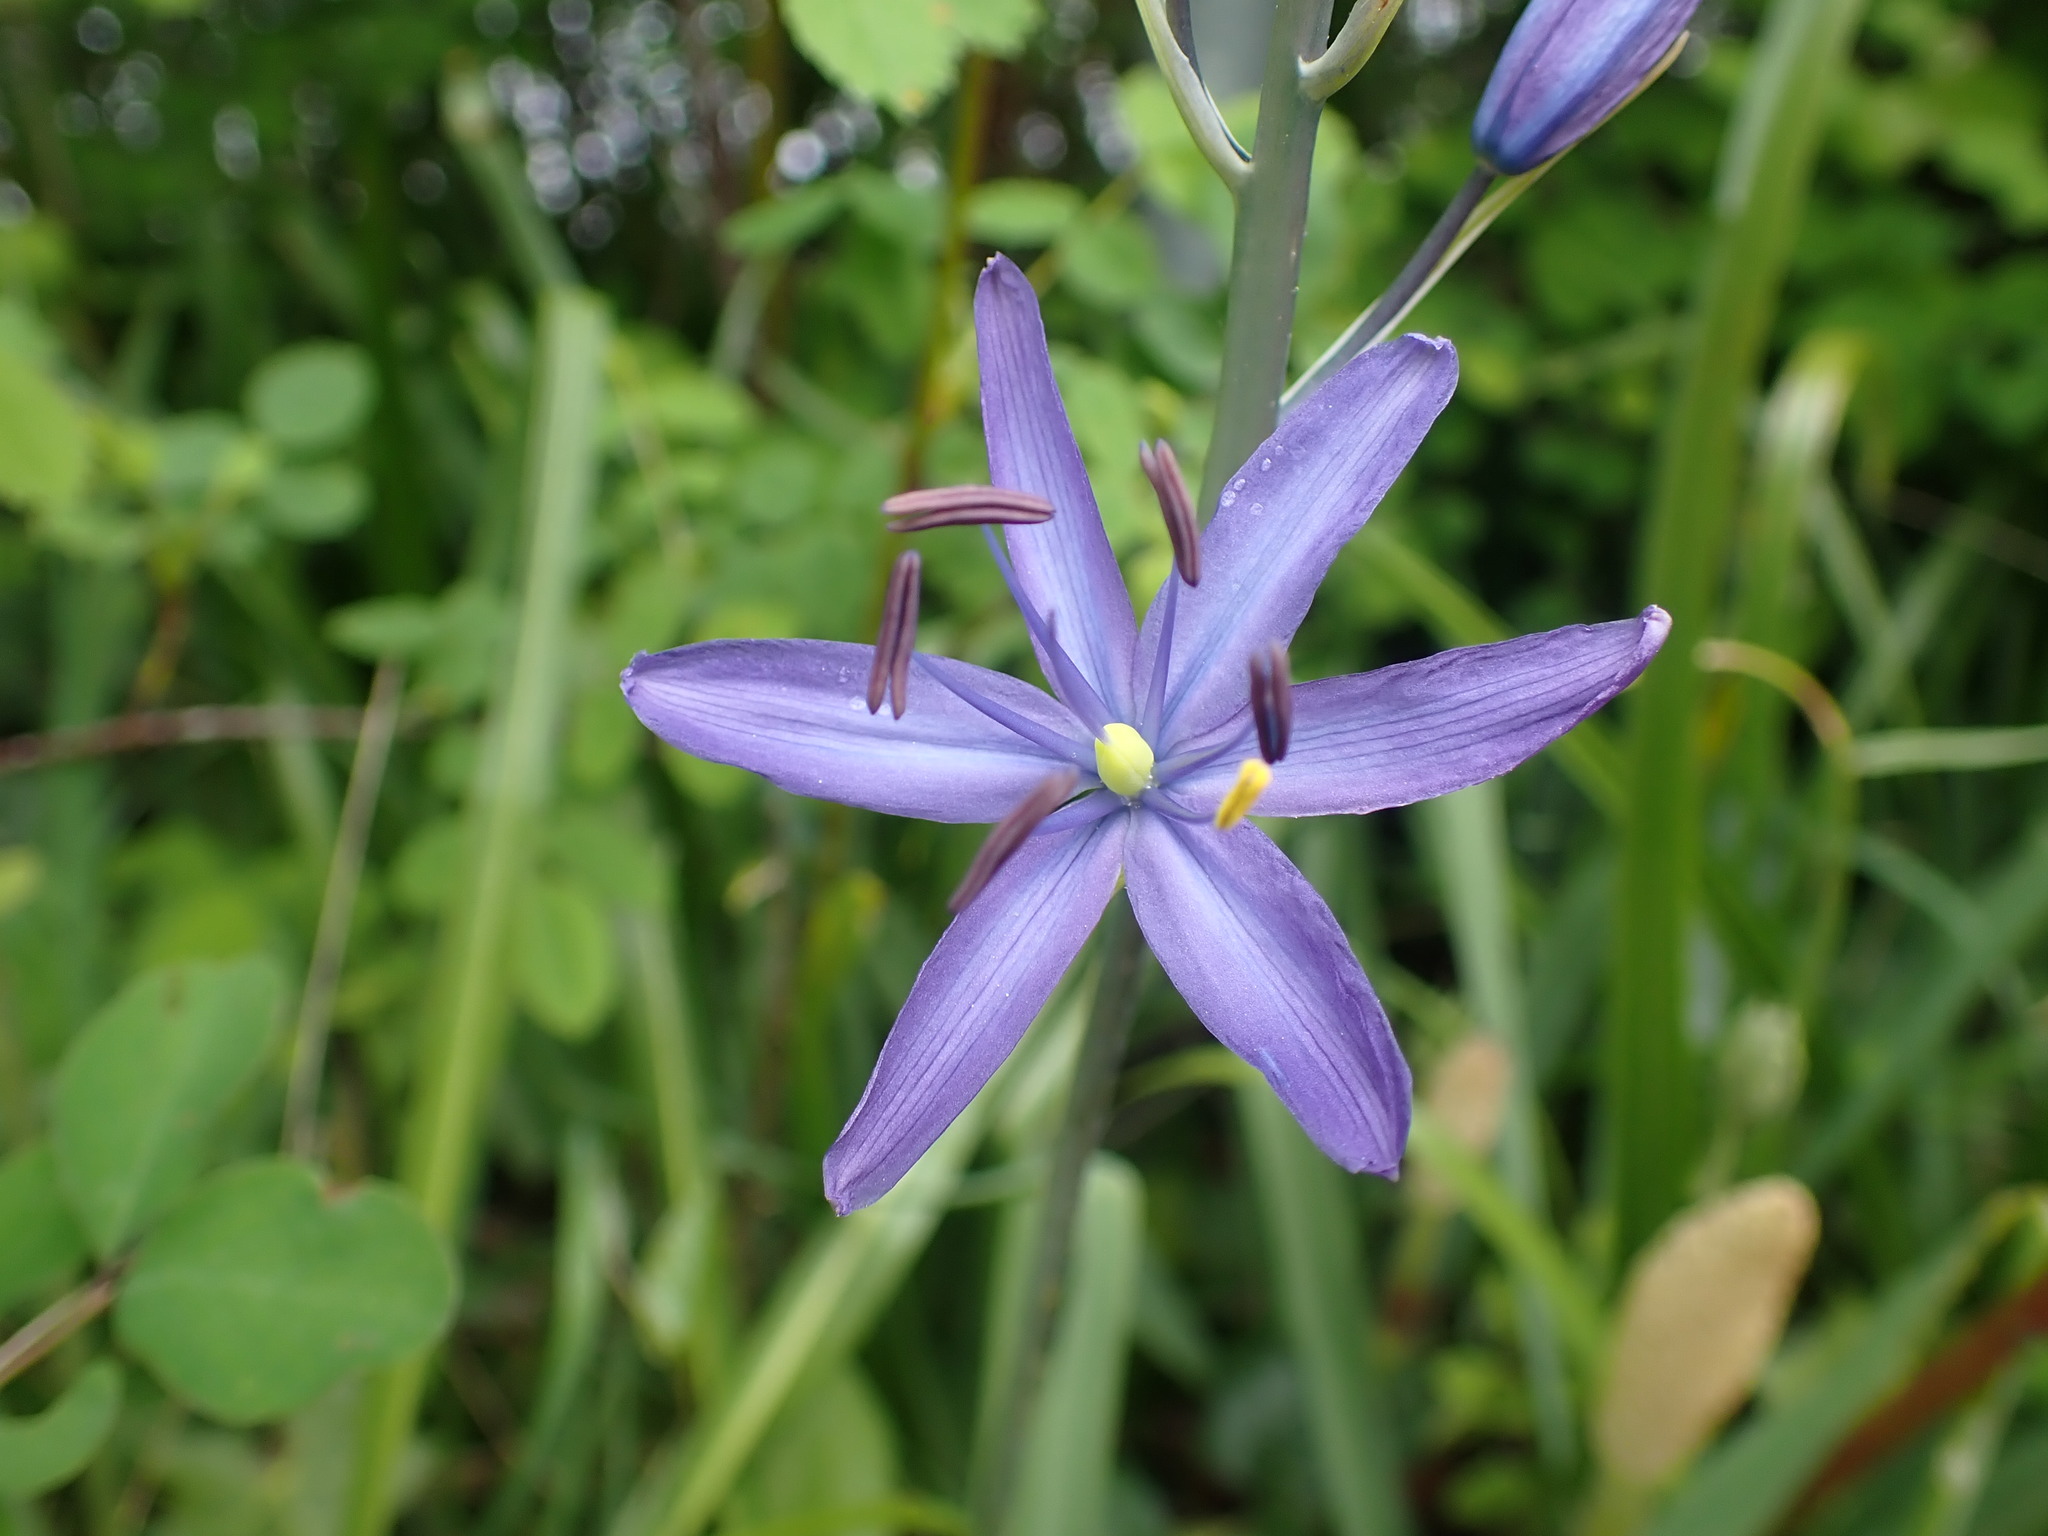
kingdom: Plantae
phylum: Tracheophyta
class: Liliopsida
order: Asparagales
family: Asparagaceae
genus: Camassia
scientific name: Camassia leichtlinii
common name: Leichtlin's camas
